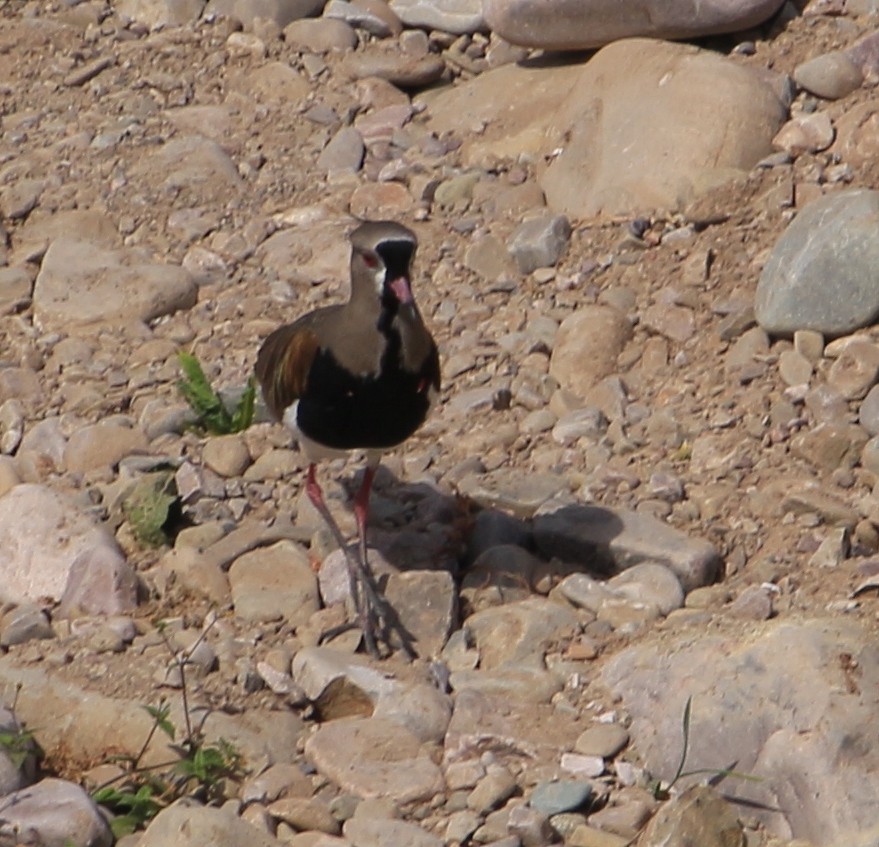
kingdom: Animalia
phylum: Chordata
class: Aves
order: Charadriiformes
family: Charadriidae
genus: Vanellus
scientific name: Vanellus chilensis
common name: Southern lapwing
